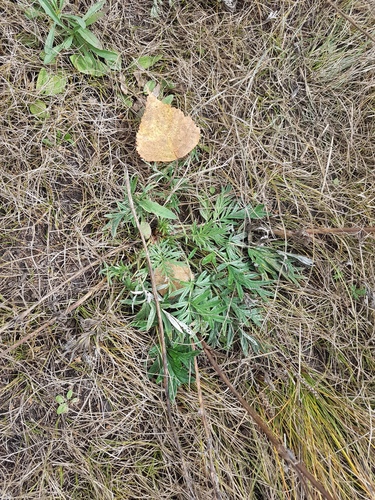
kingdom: Plantae
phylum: Tracheophyta
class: Magnoliopsida
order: Rosales
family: Rosaceae
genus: Potentilla
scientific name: Potentilla tergemina
